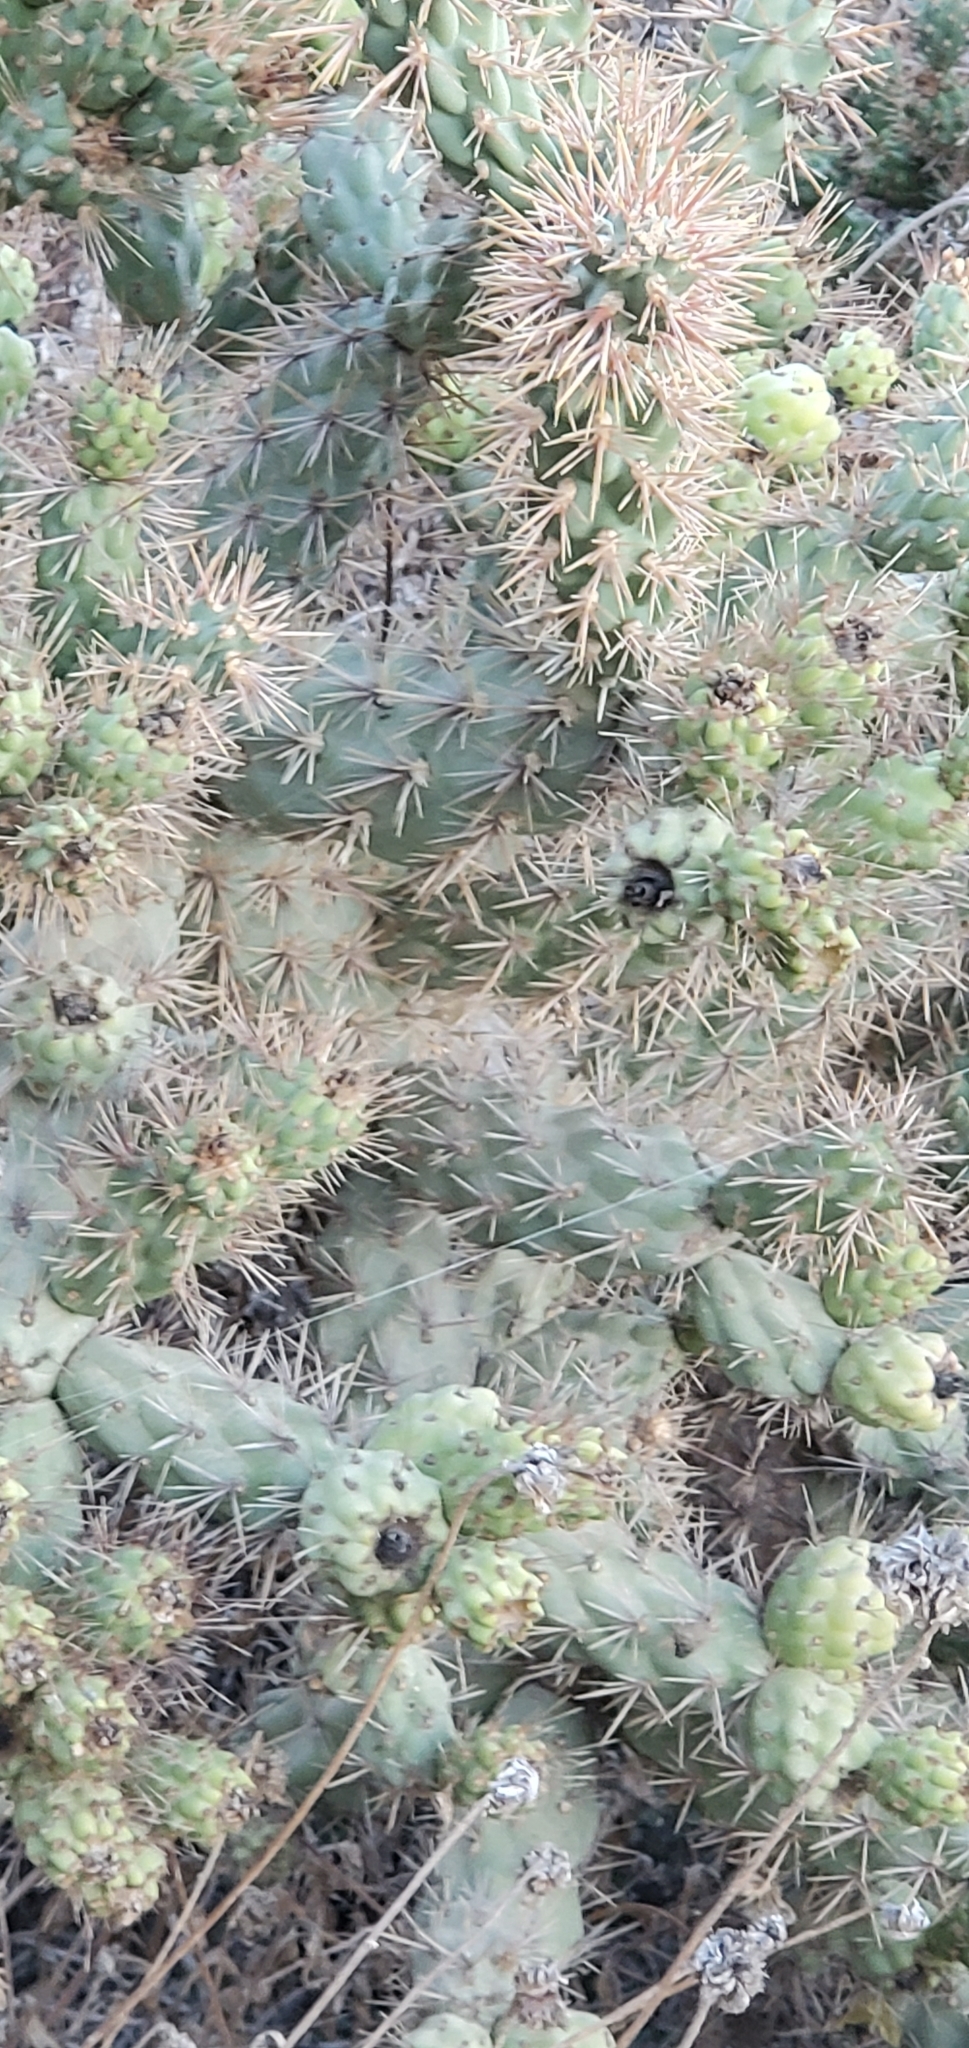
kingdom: Plantae
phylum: Tracheophyta
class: Magnoliopsida
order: Caryophyllales
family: Cactaceae
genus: Cylindropuntia
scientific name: Cylindropuntia prolifera
